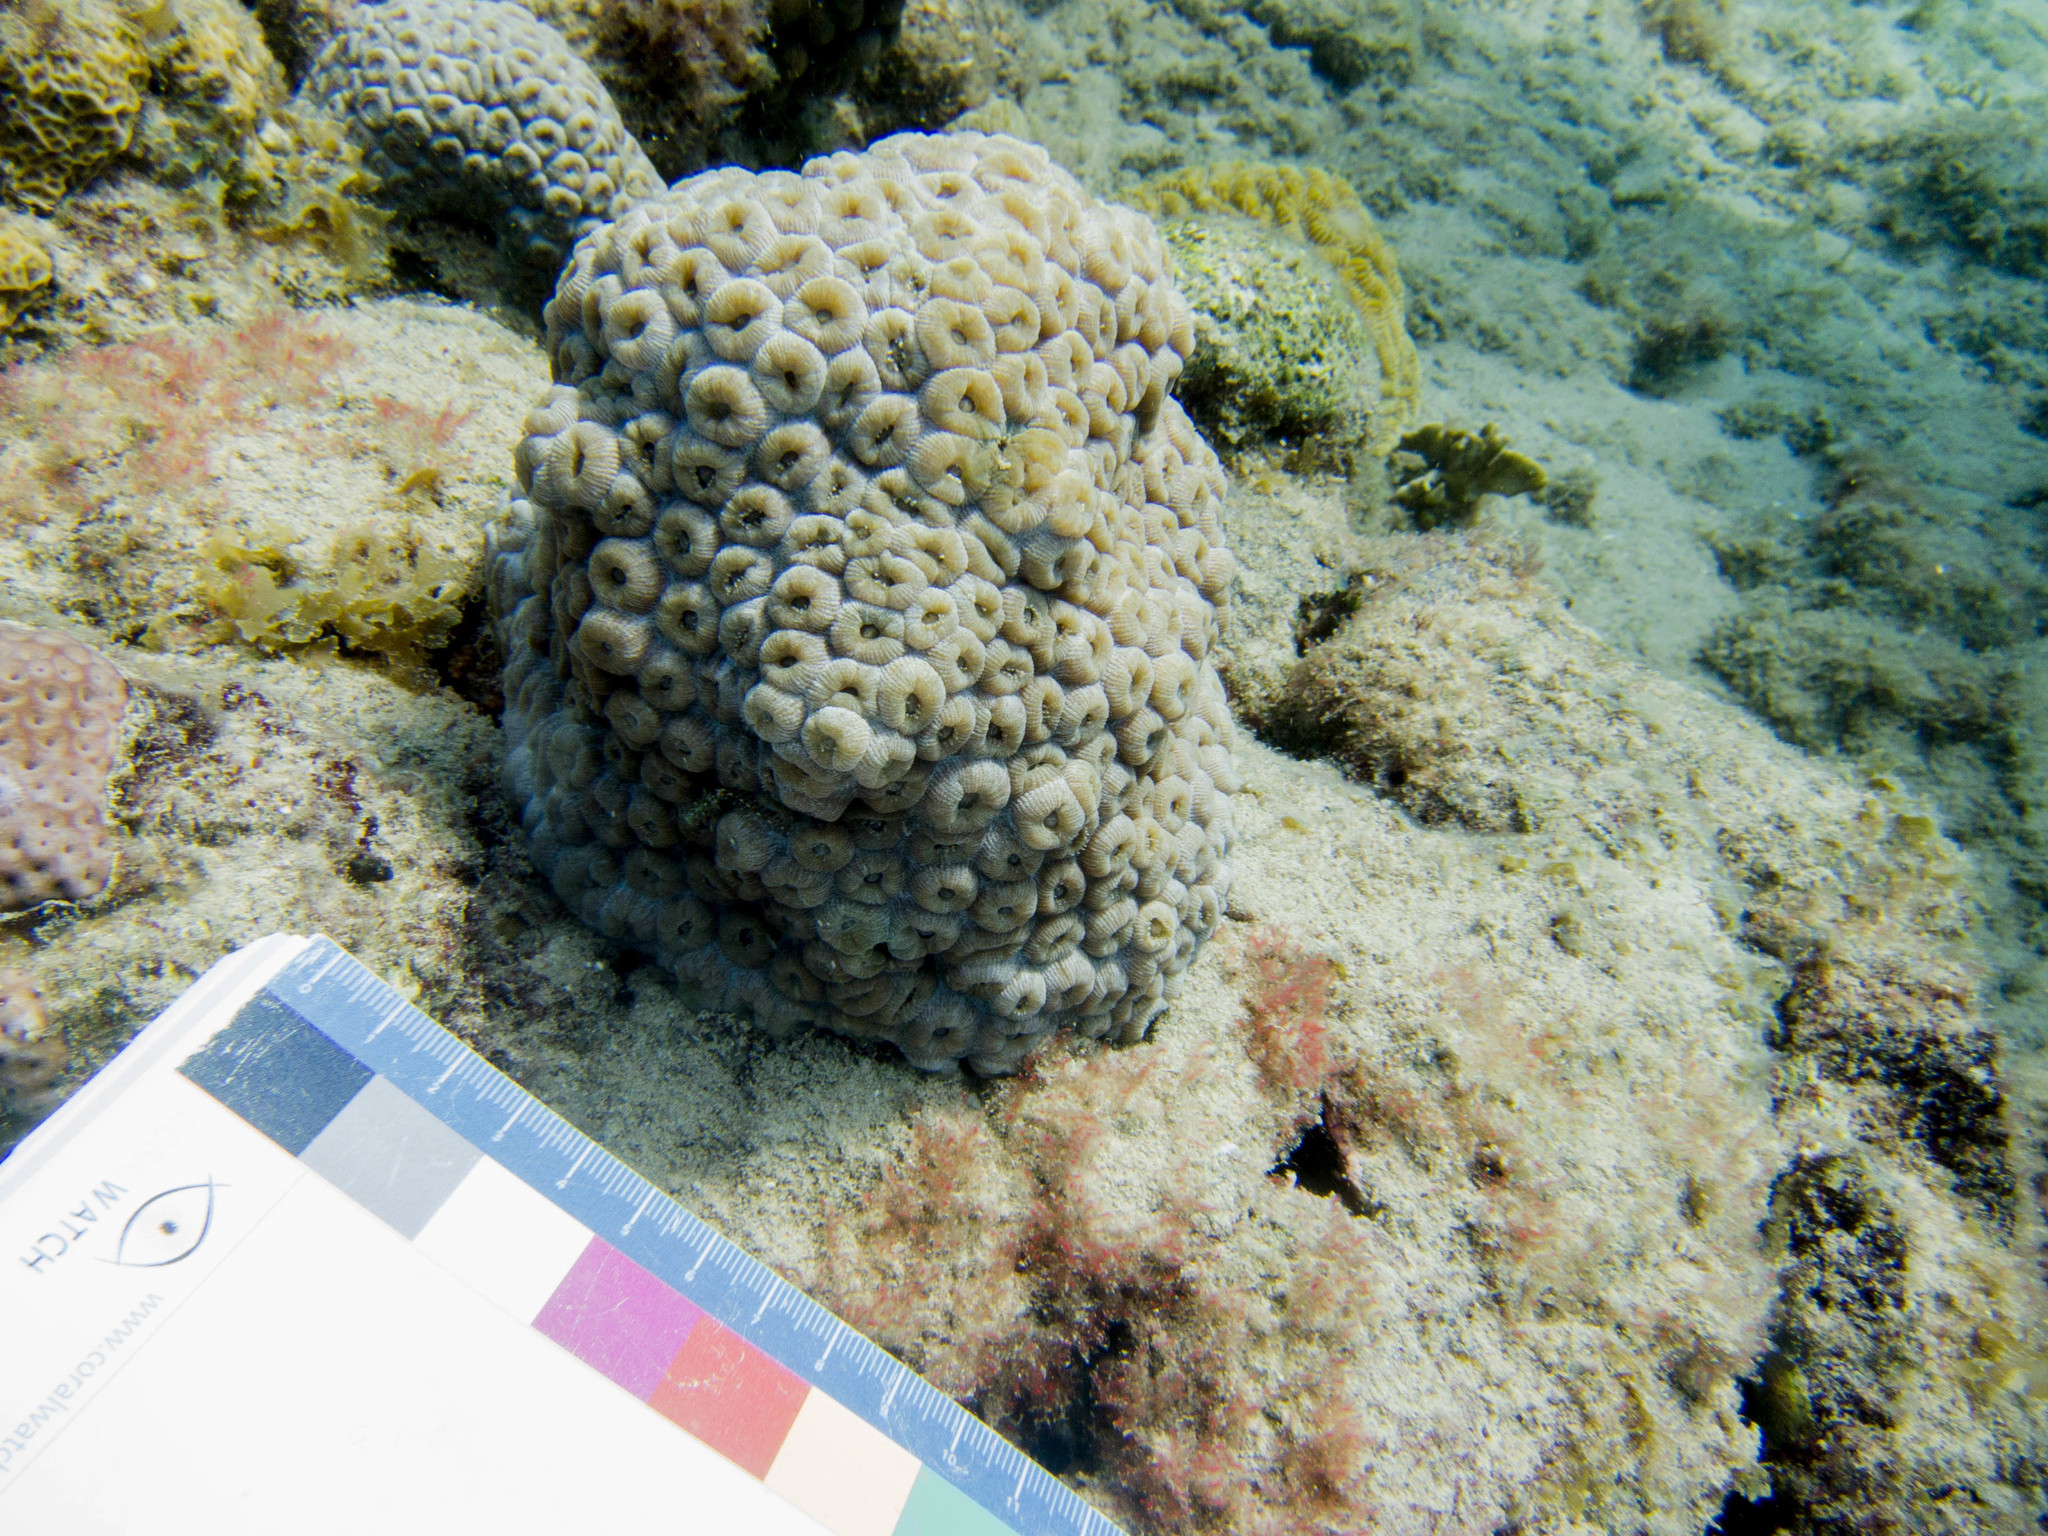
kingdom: Animalia
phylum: Cnidaria
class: Anthozoa
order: Scleractinia
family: Montastraeidae
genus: Montastraea
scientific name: Montastraea cavernosa
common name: Great star coral
